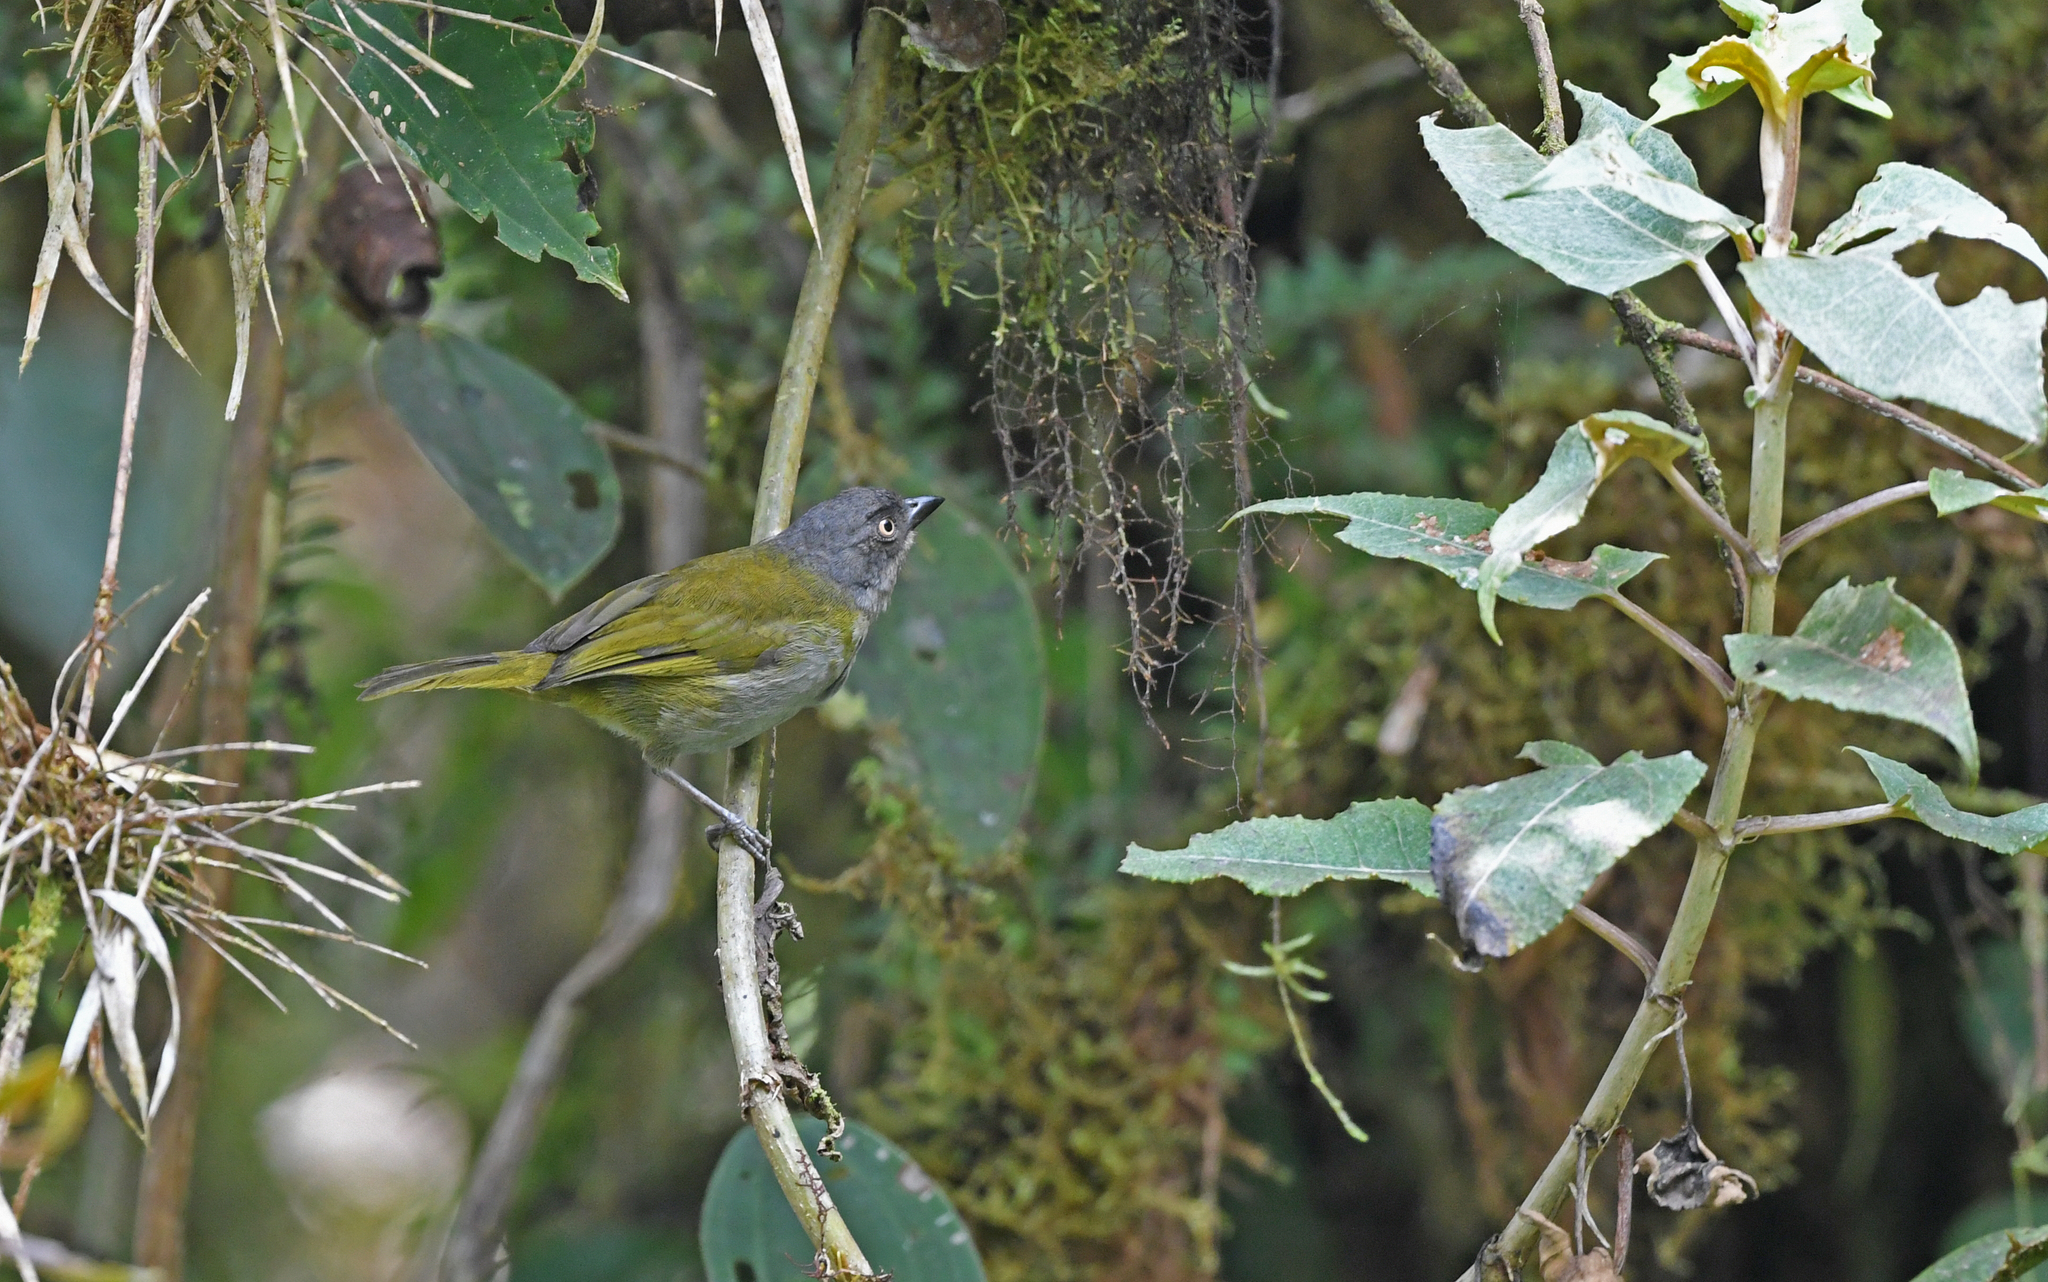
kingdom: Animalia
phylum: Chordata
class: Aves
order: Passeriformes
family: Passerellidae
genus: Chlorospingus
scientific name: Chlorospingus semifuscus
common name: Dusky bush-tanager
